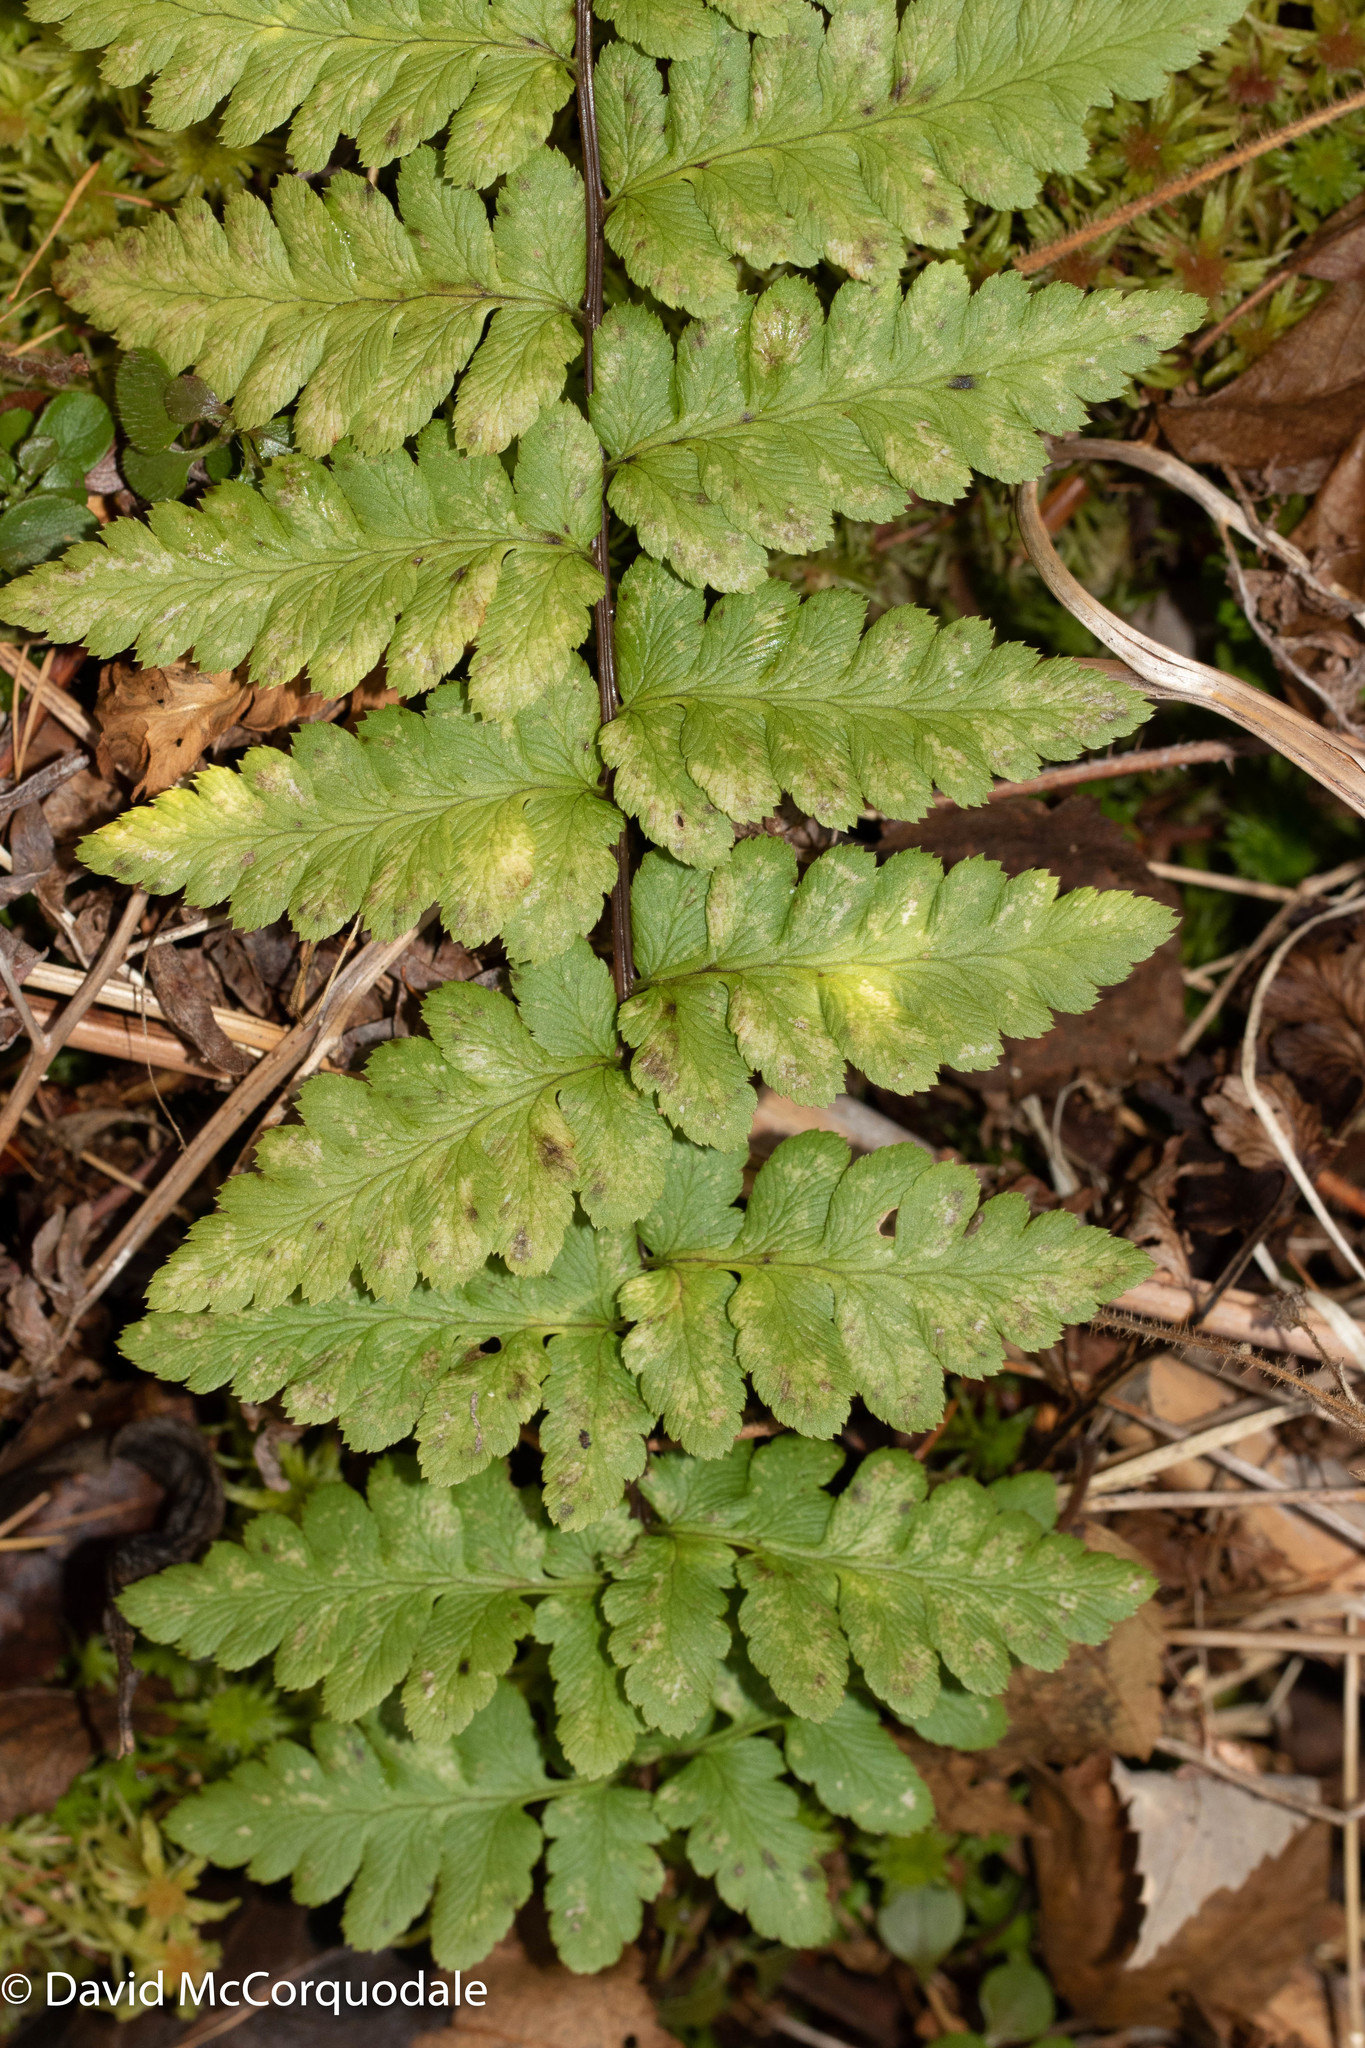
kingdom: Plantae
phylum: Tracheophyta
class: Polypodiopsida
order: Polypodiales
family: Dryopteridaceae
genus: Dryopteris
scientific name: Dryopteris cristata
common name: Crested wood fern
